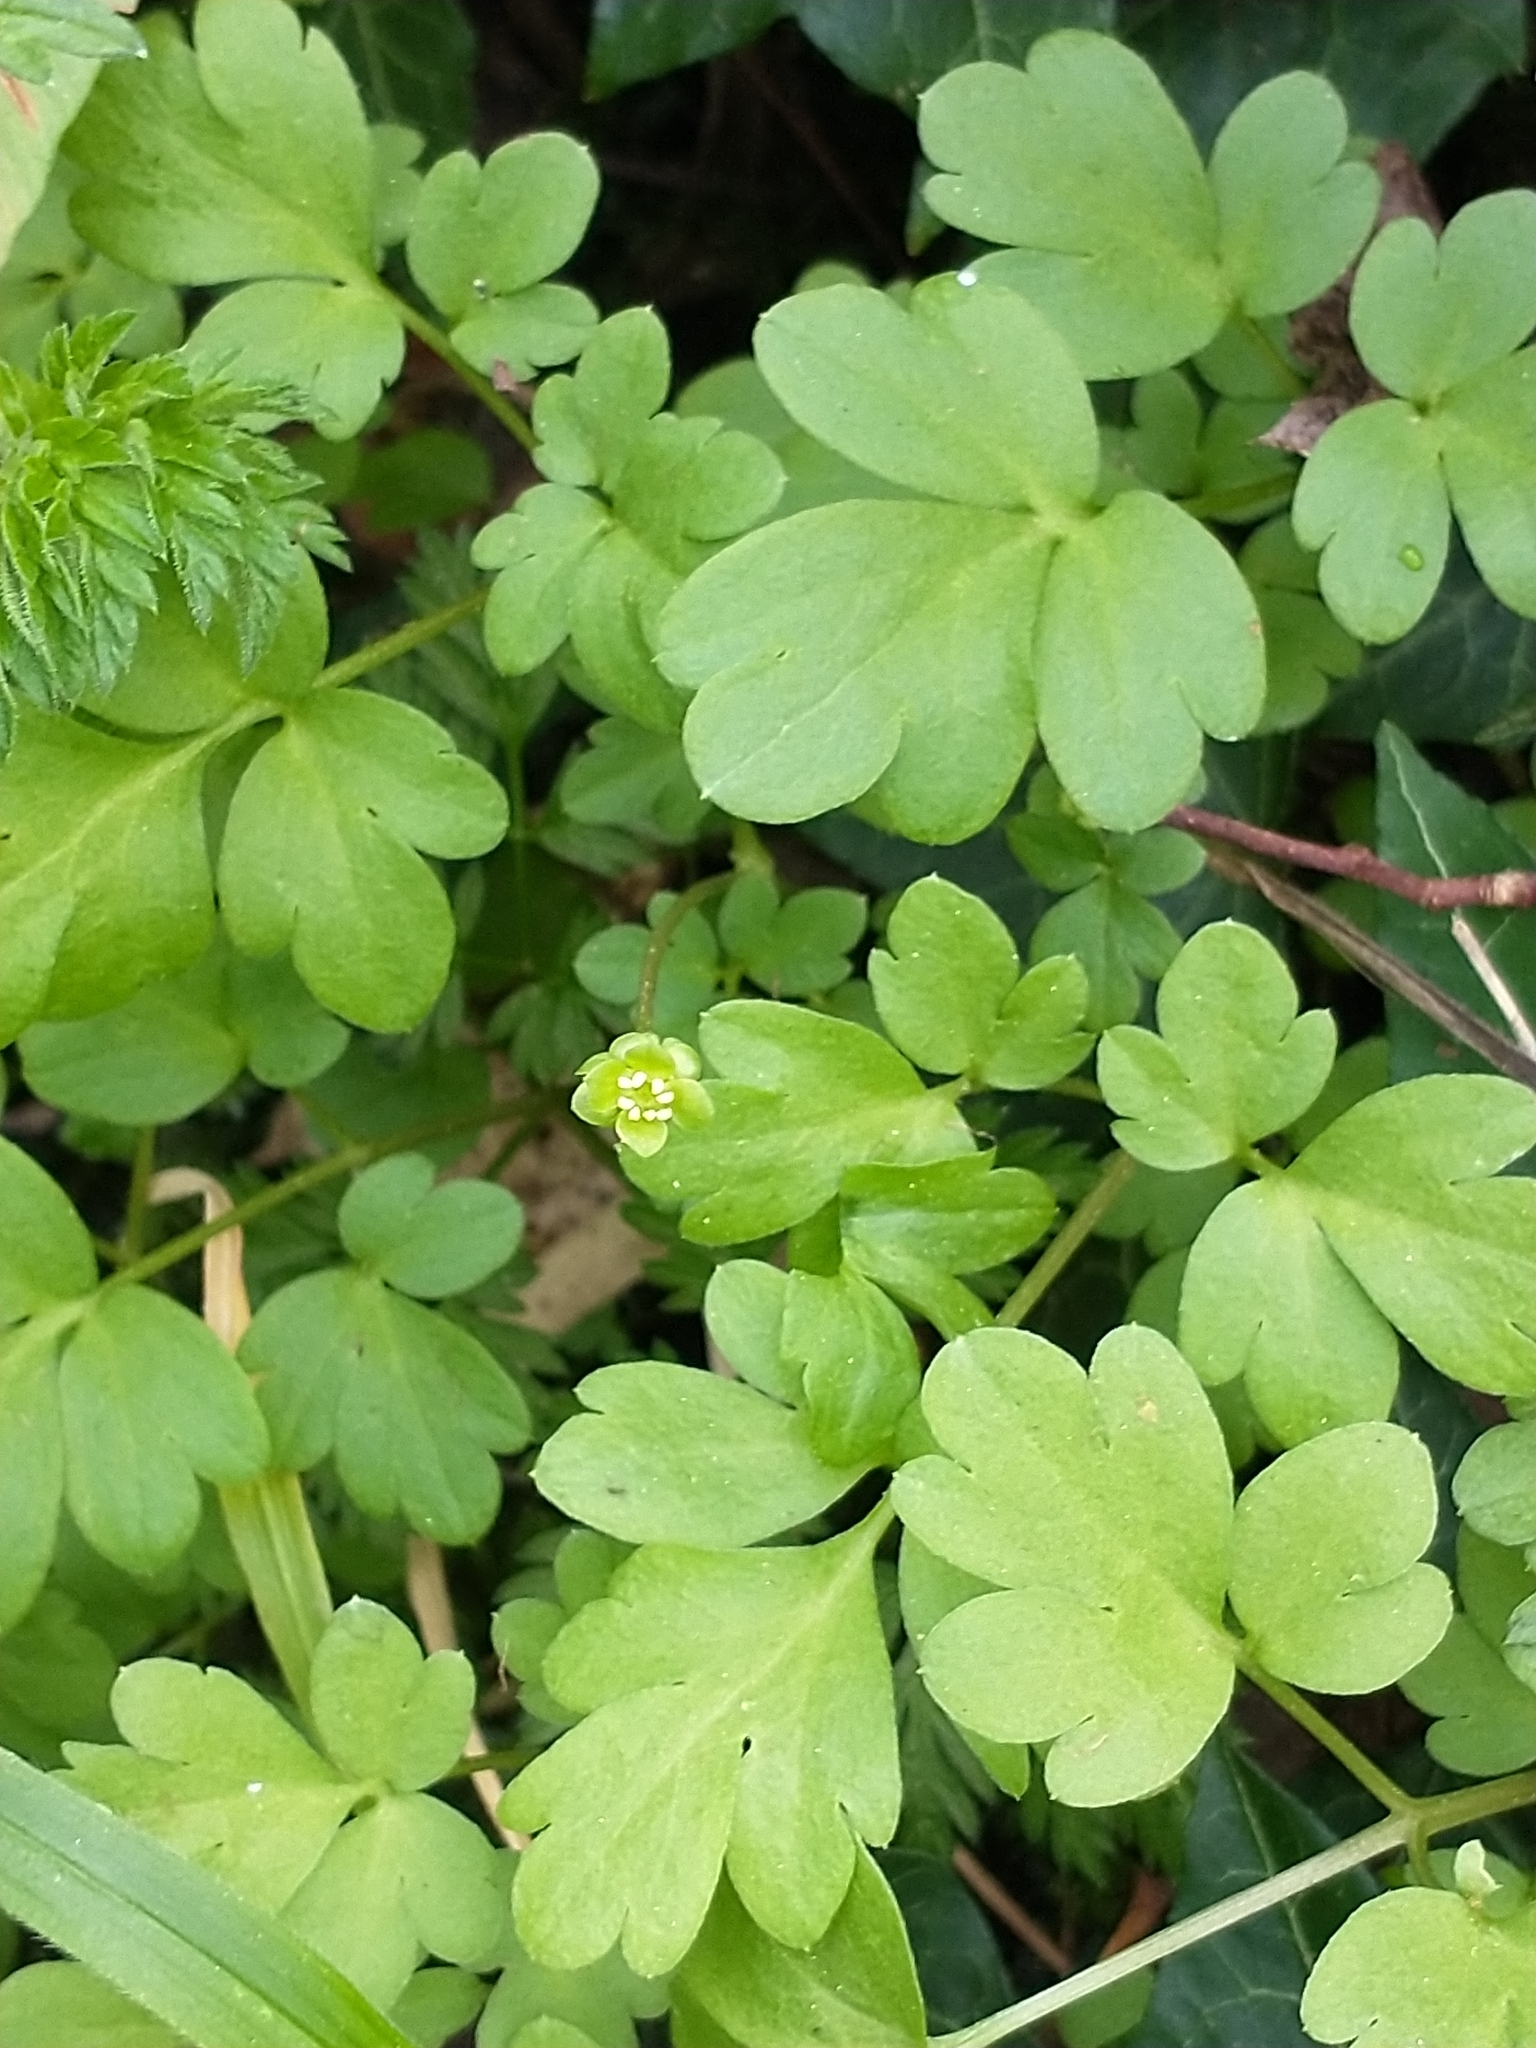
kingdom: Plantae
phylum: Tracheophyta
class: Magnoliopsida
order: Dipsacales
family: Viburnaceae
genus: Adoxa
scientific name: Adoxa moschatellina
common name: Moschatel
